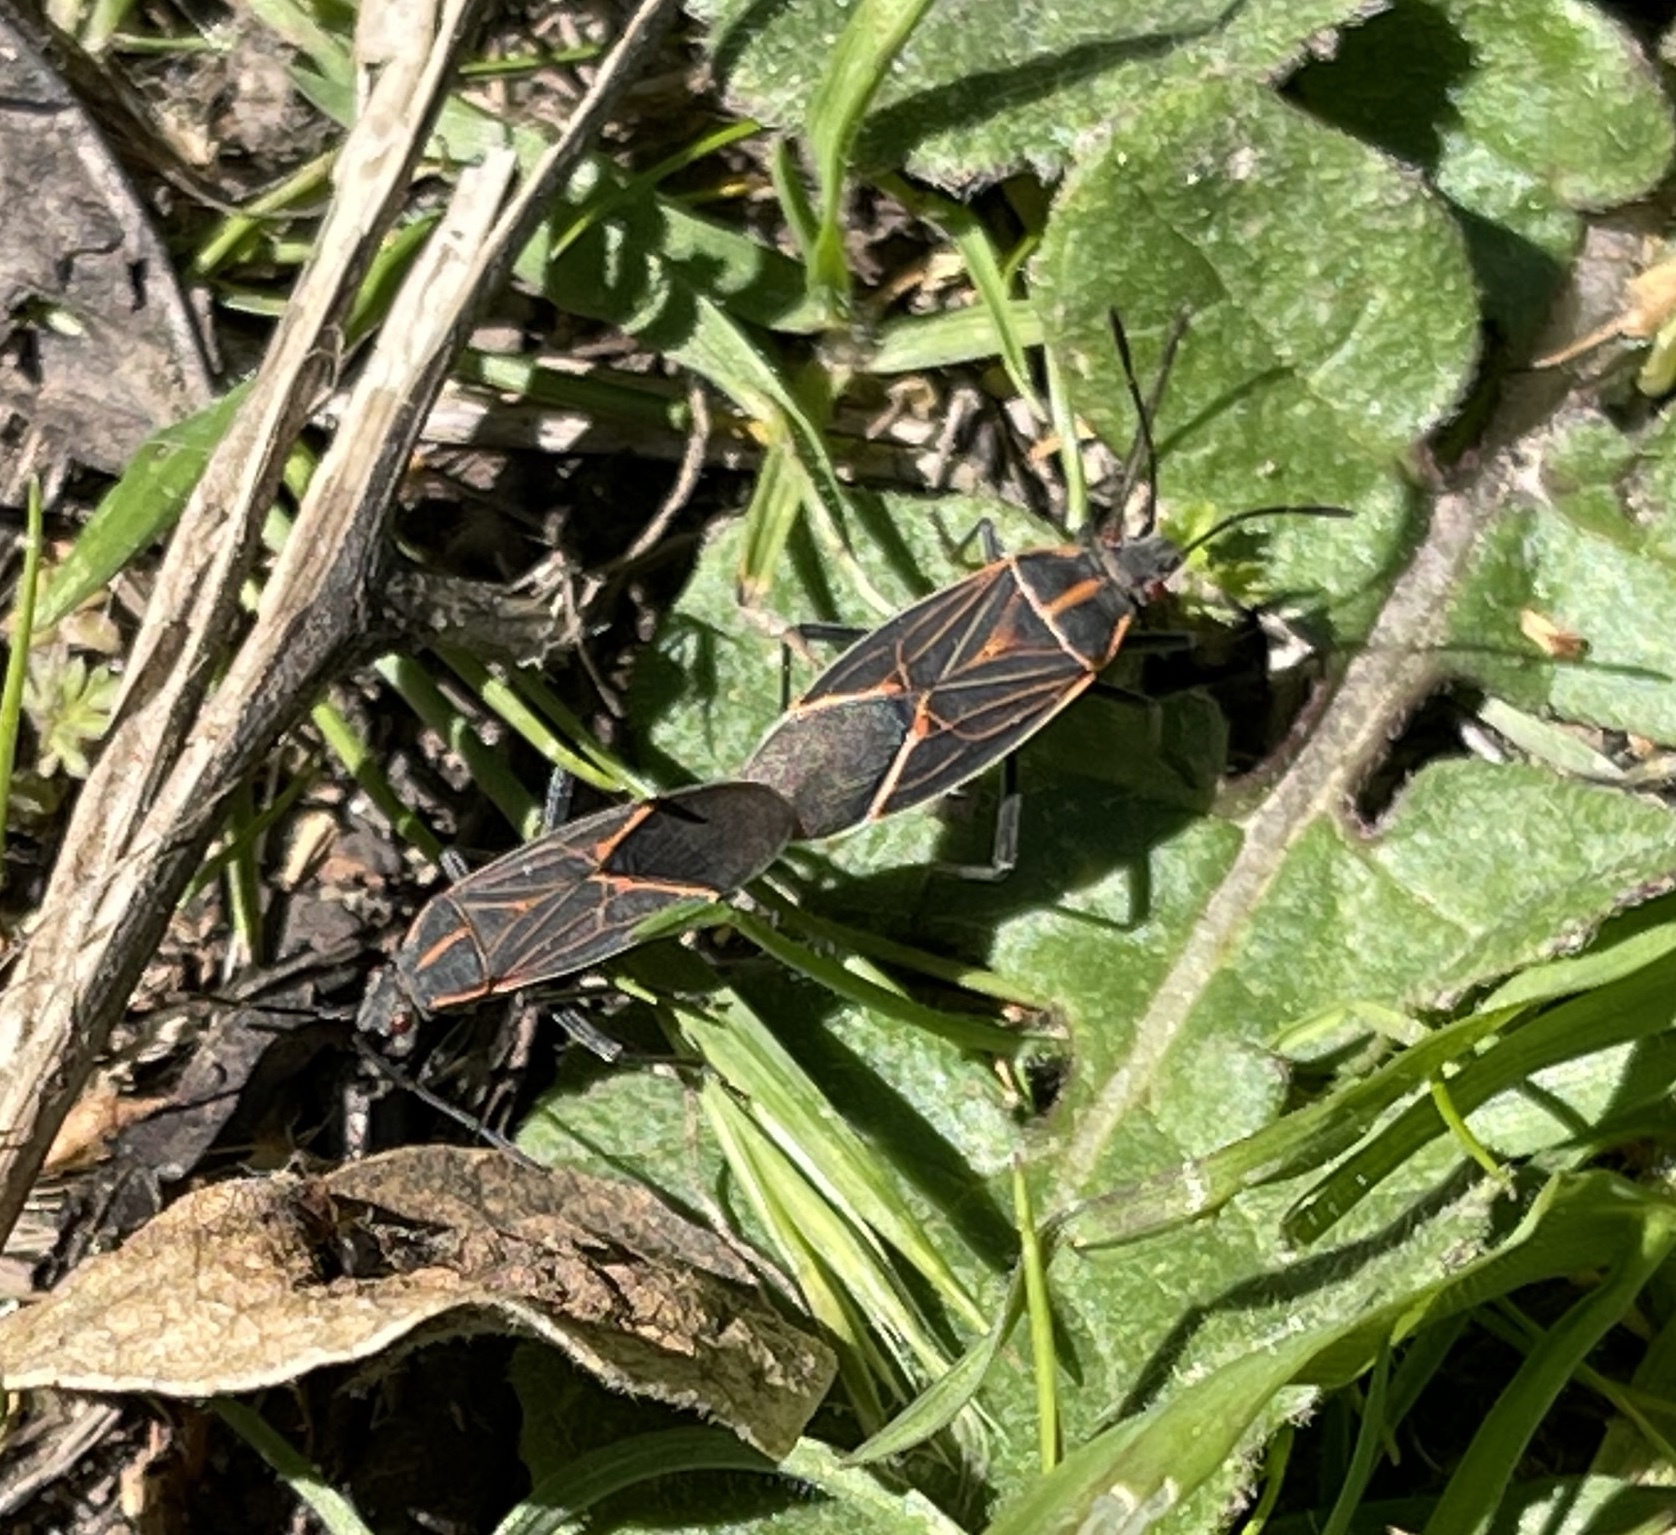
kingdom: Animalia
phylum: Arthropoda
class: Insecta
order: Hemiptera
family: Rhopalidae
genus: Boisea
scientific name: Boisea rubrolineata
